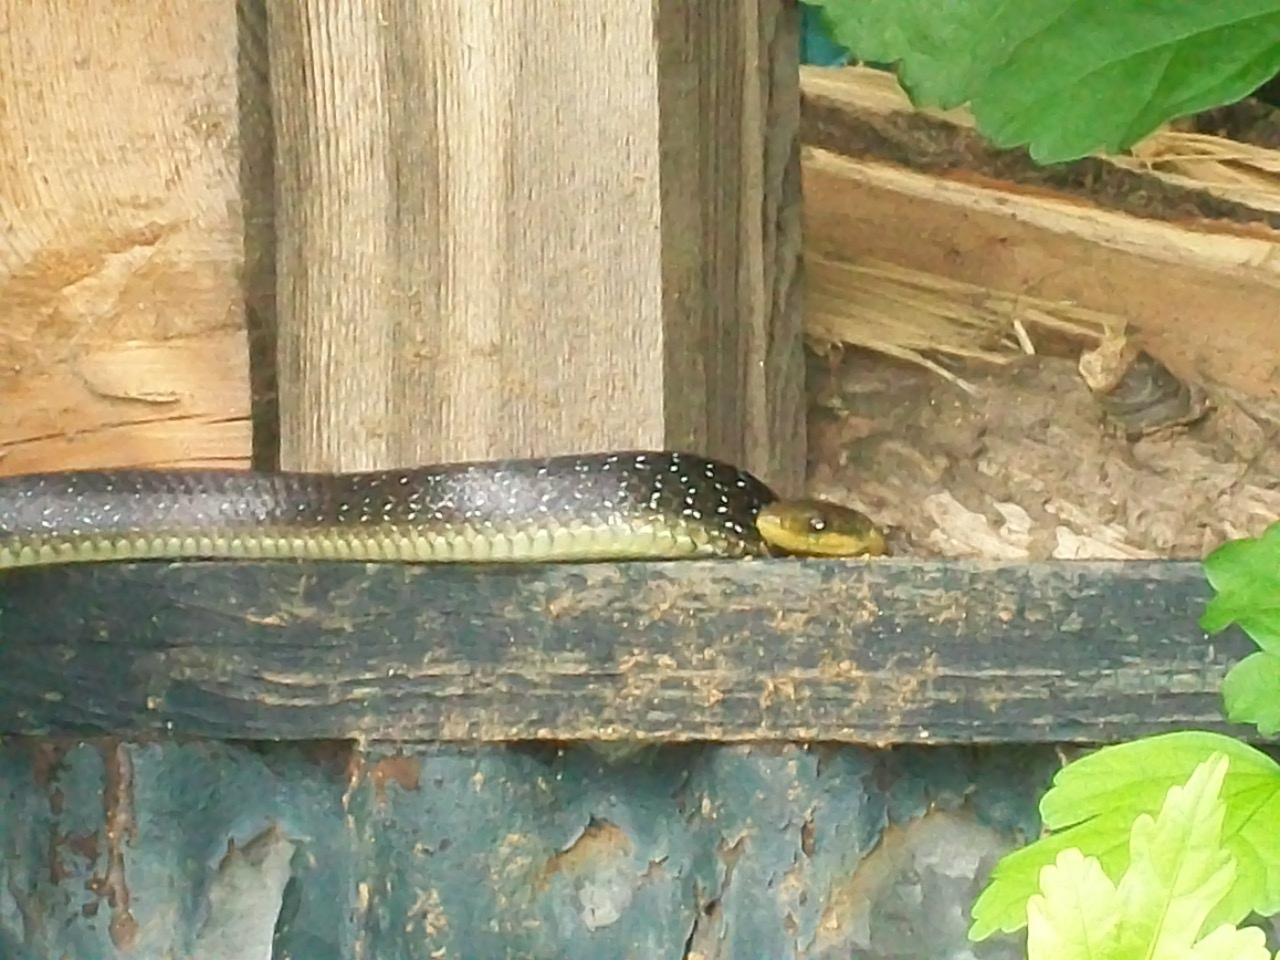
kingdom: Animalia
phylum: Chordata
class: Squamata
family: Colubridae
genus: Zamenis
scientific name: Zamenis longissimus
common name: Aesculapean snake
